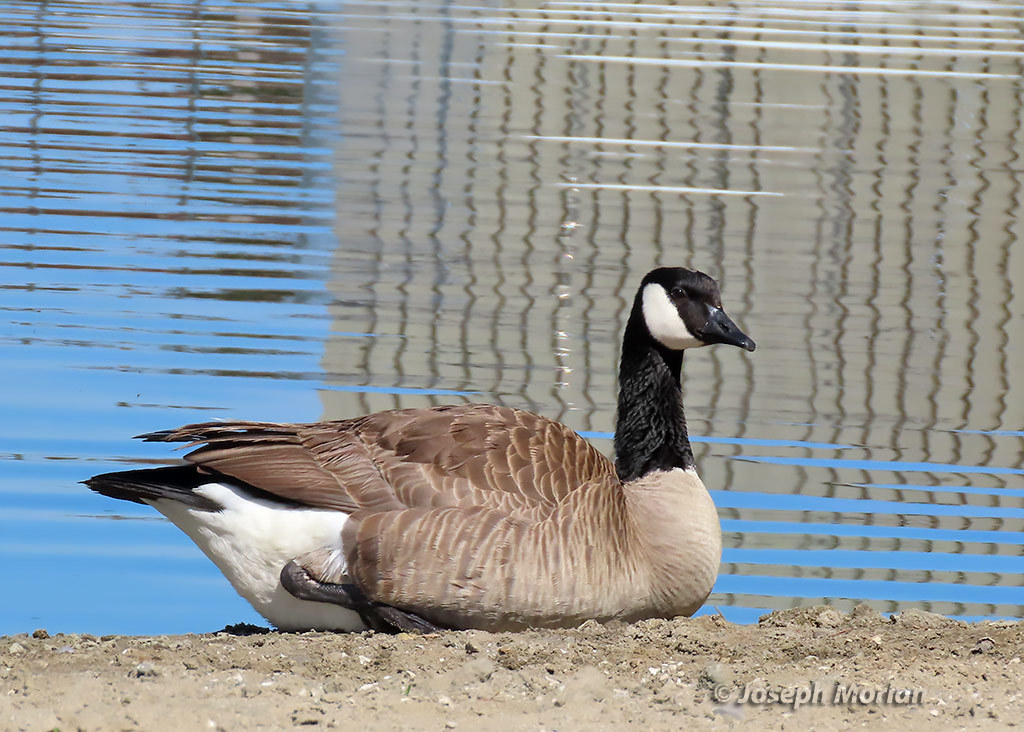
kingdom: Animalia
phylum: Chordata
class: Aves
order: Anseriformes
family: Anatidae
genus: Branta
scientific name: Branta canadensis
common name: Canada goose
